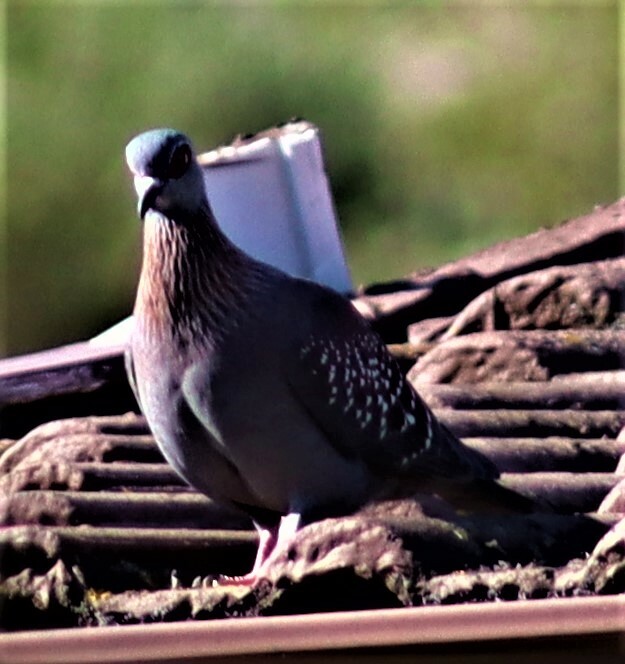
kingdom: Animalia
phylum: Chordata
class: Aves
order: Columbiformes
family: Columbidae
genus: Columba
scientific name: Columba guinea
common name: Speckled pigeon
